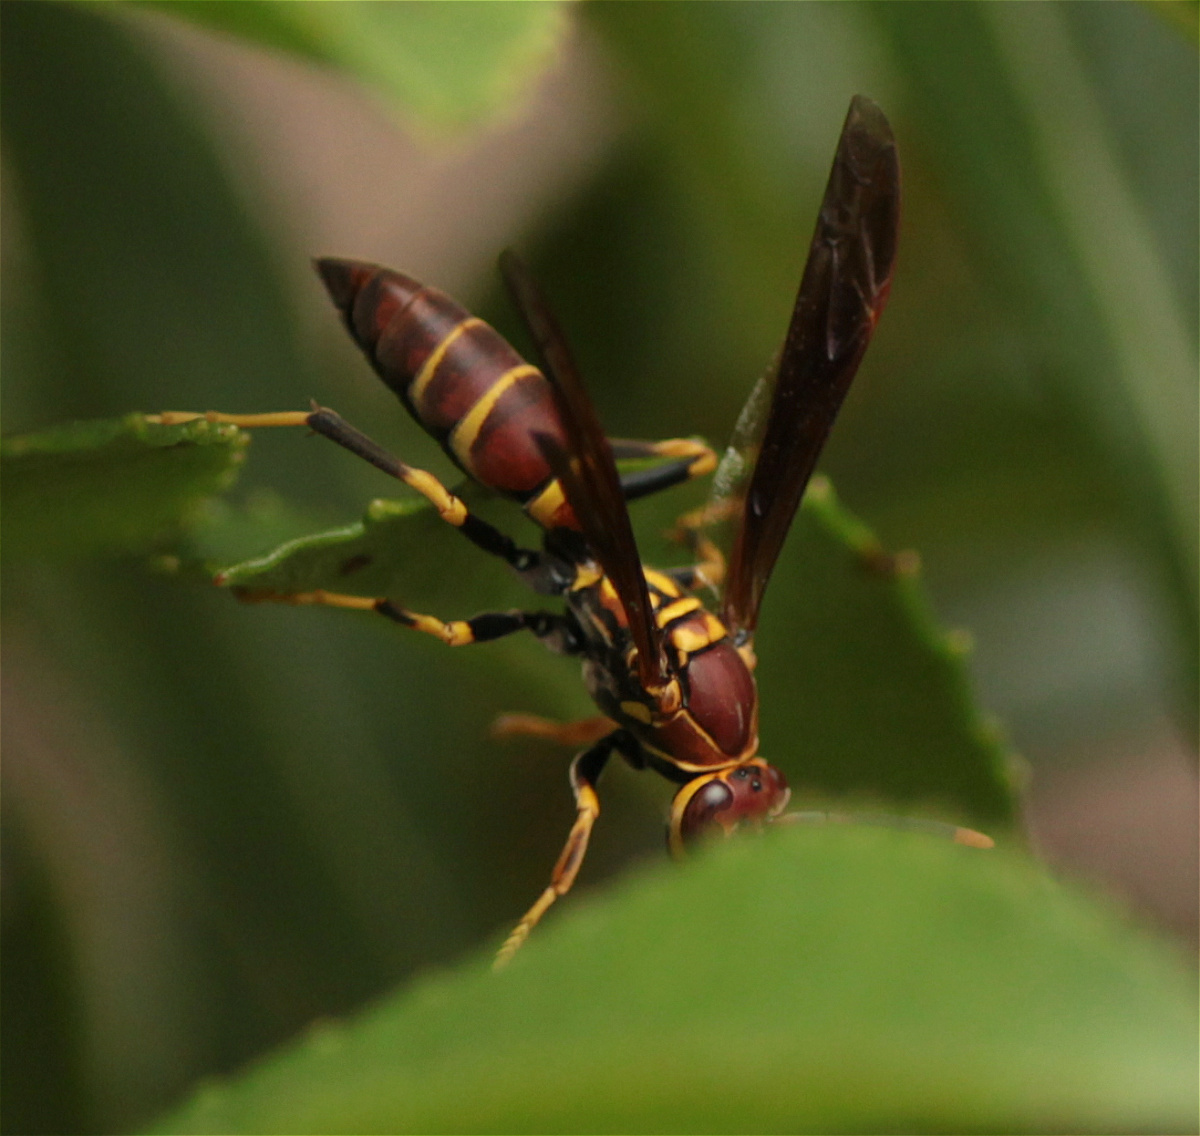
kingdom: Animalia
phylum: Arthropoda
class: Insecta
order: Hymenoptera
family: Eumenidae
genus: Polistes
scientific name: Polistes instabilis
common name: Unstable paper wasp
